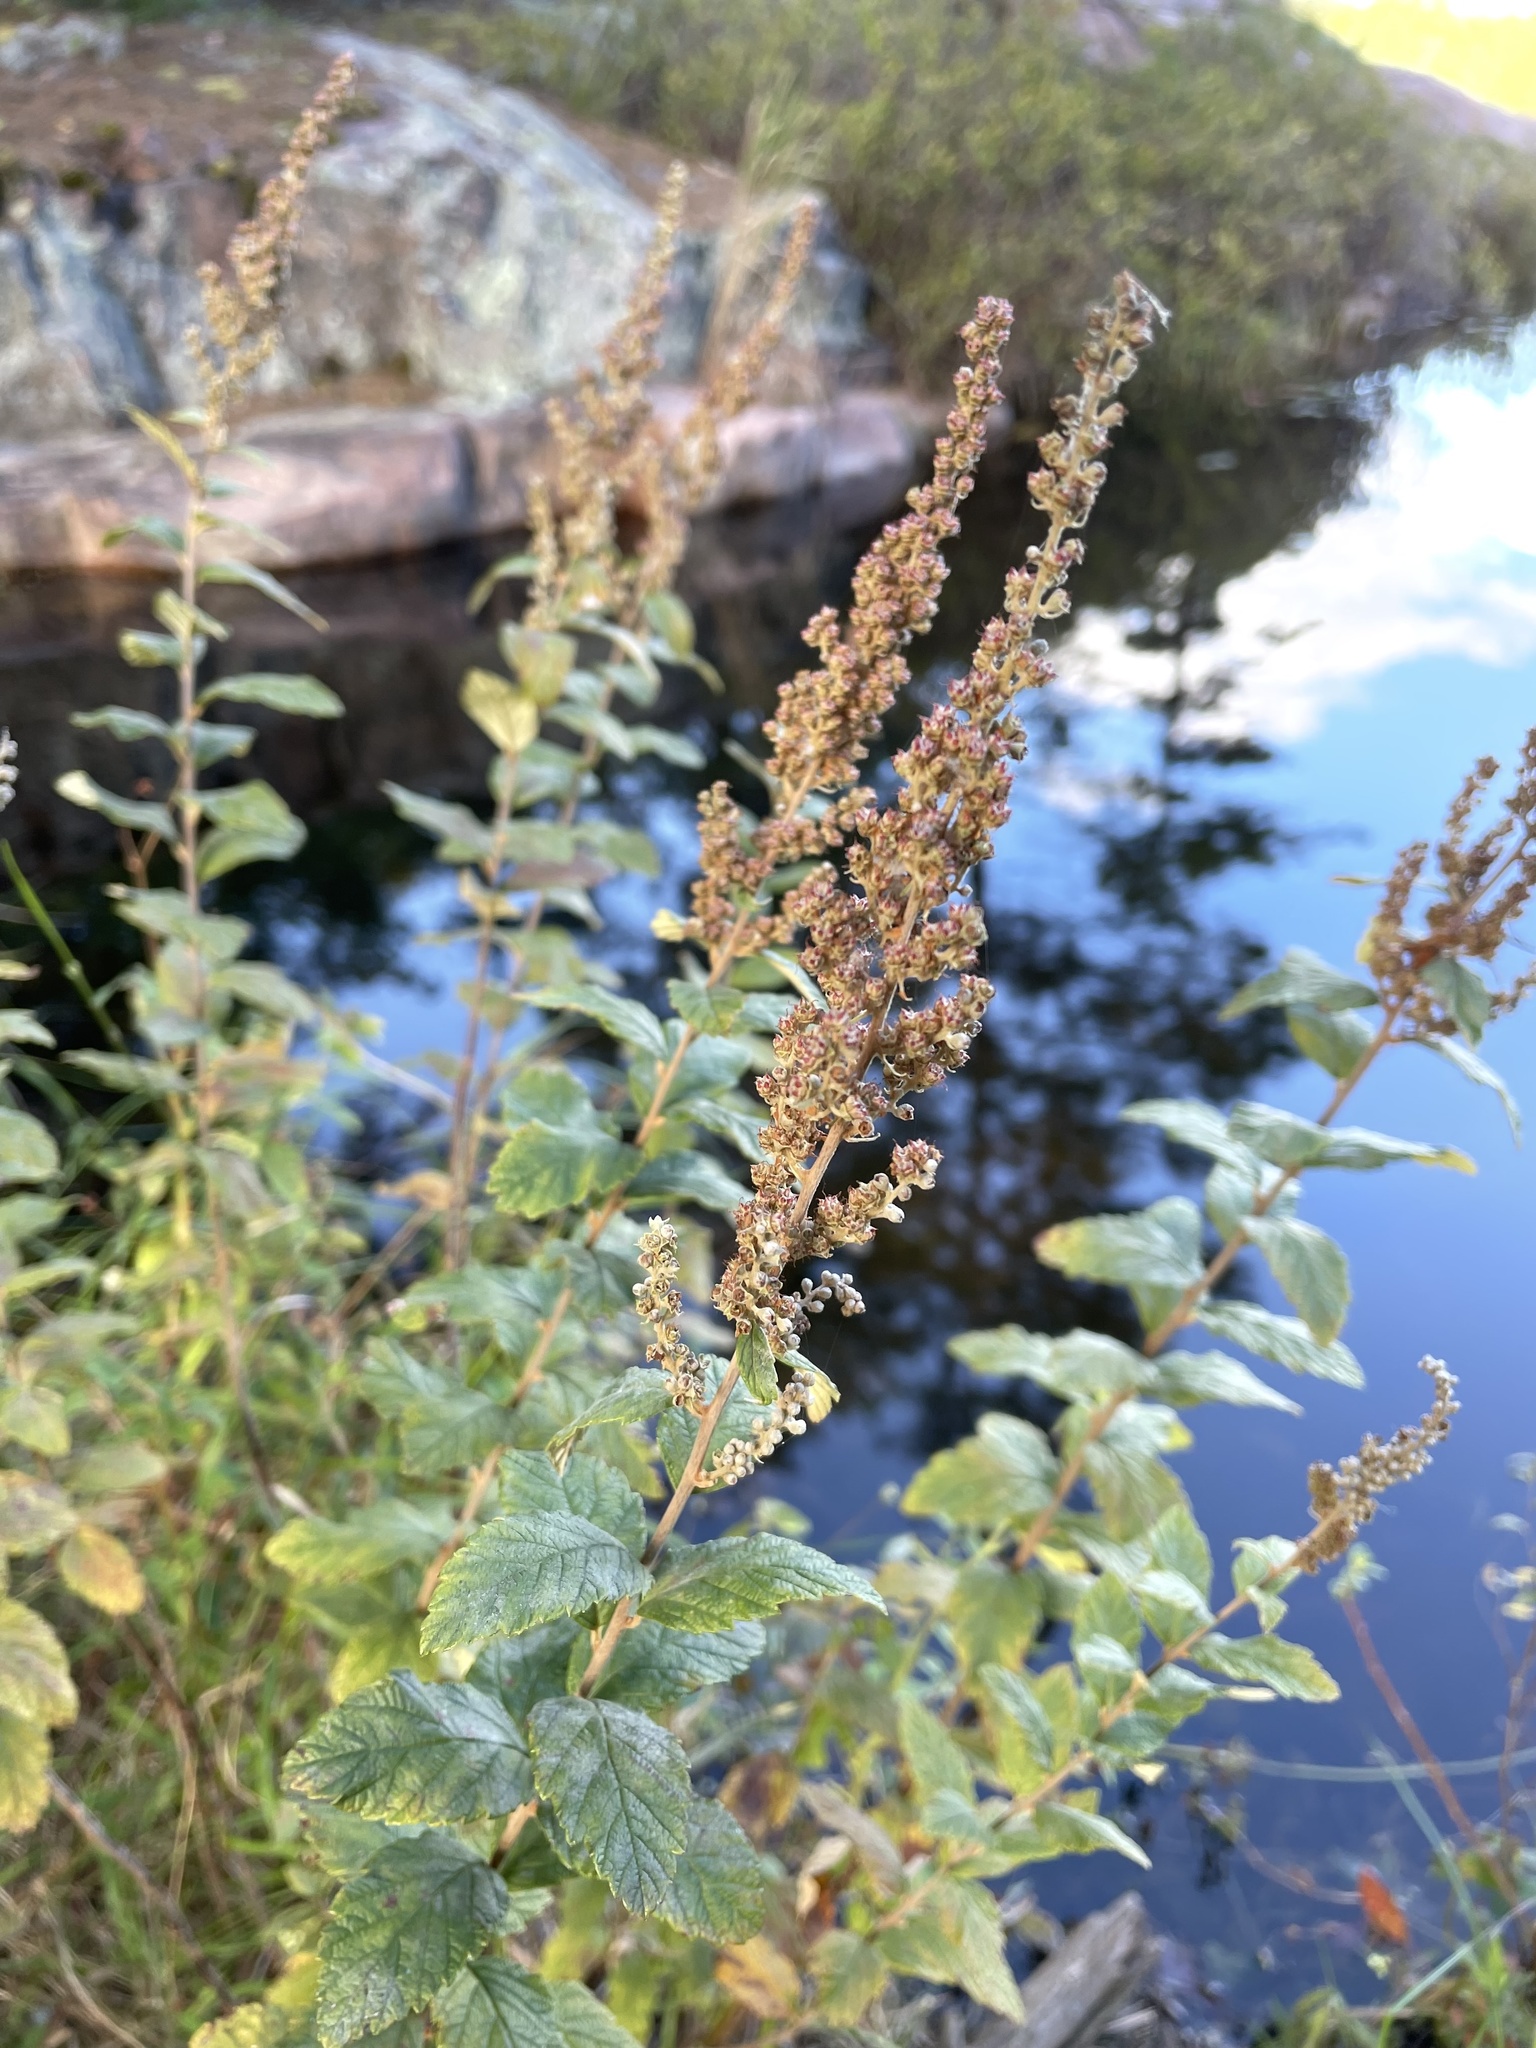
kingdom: Plantae
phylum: Tracheophyta
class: Magnoliopsida
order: Rosales
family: Rosaceae
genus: Spiraea
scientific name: Spiraea tomentosa
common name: Hardhack
